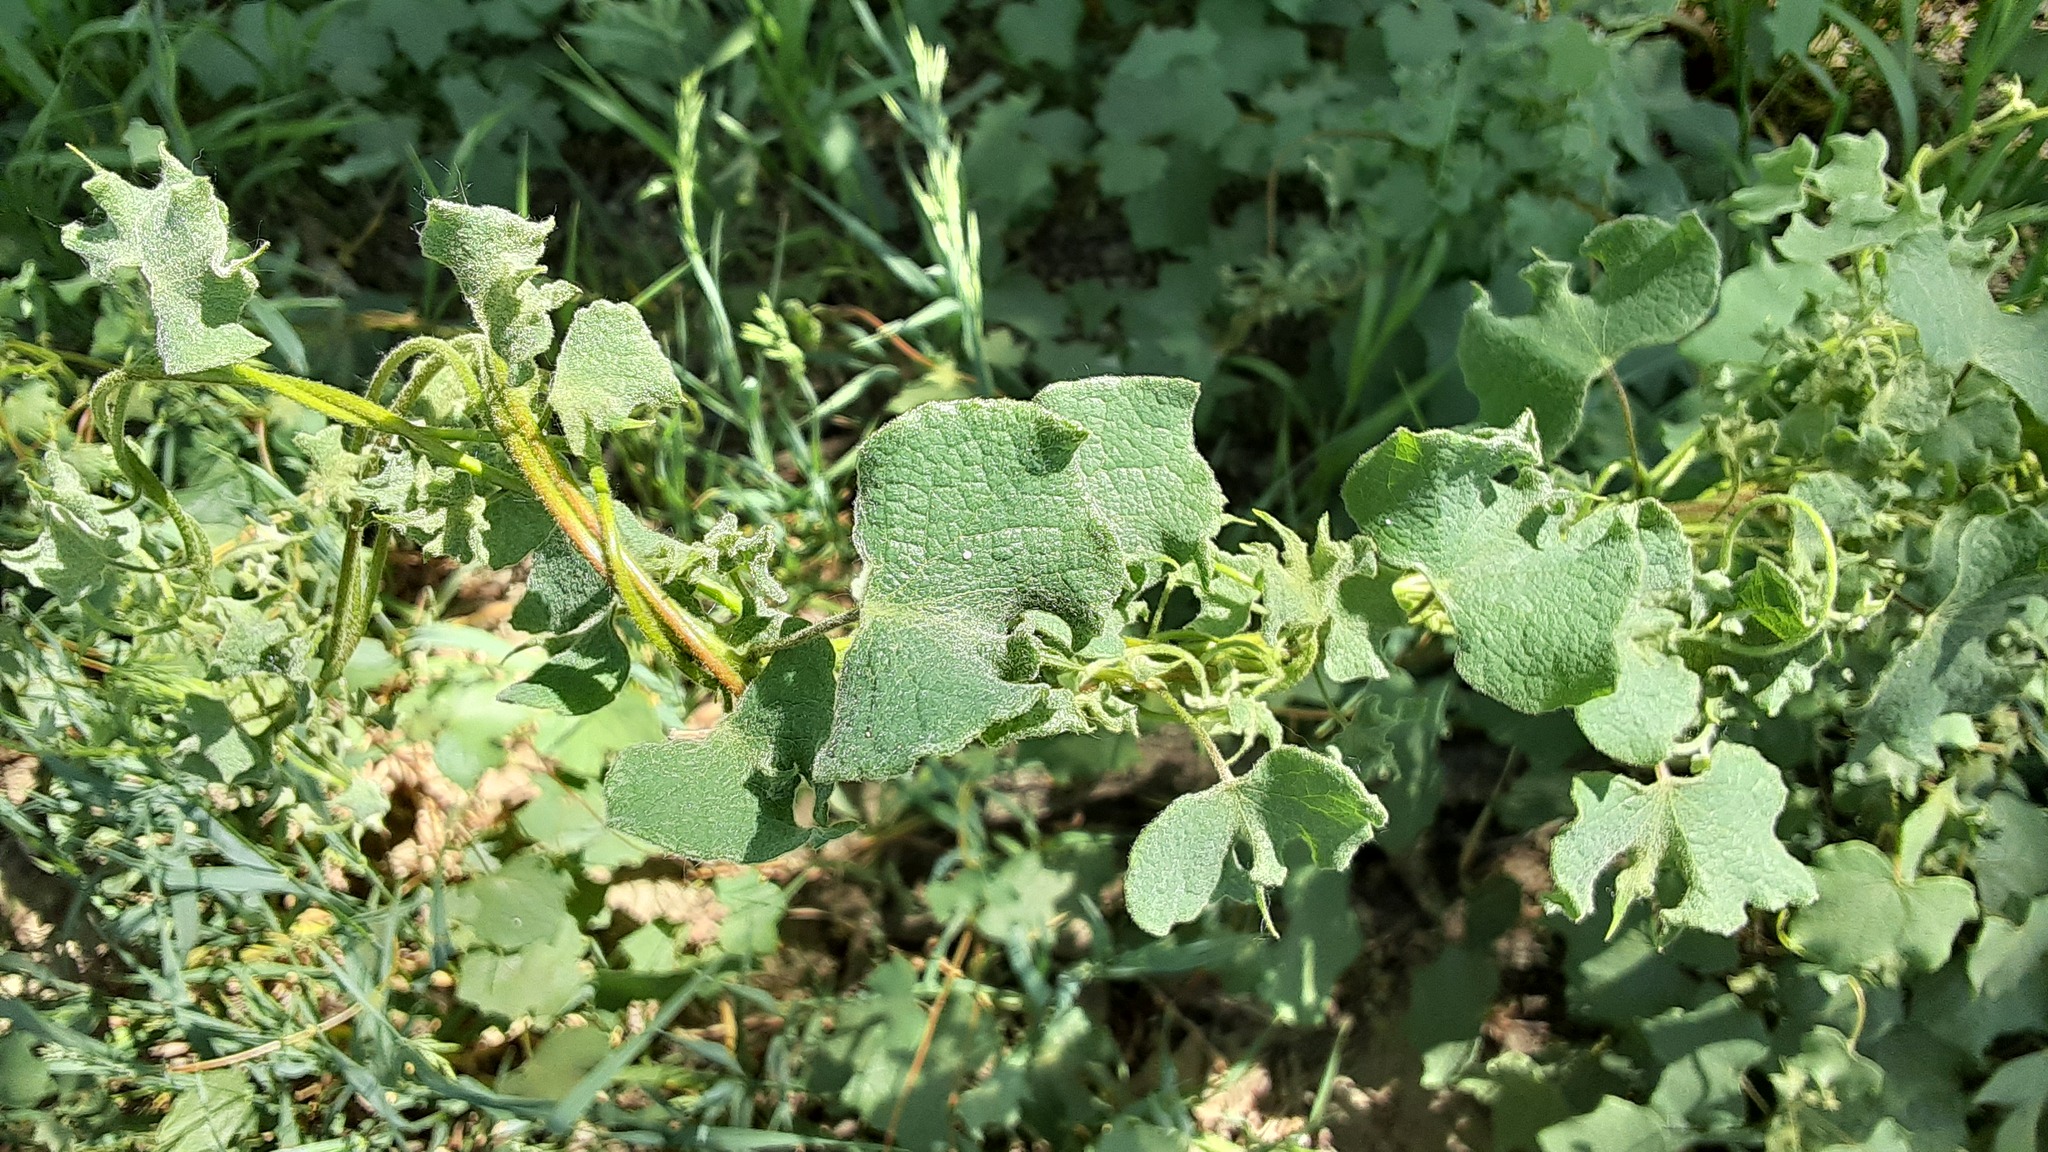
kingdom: Plantae
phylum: Tracheophyta
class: Magnoliopsida
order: Ranunculales
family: Menispermaceae
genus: Menispermum
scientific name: Menispermum canadense
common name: Moonseed
